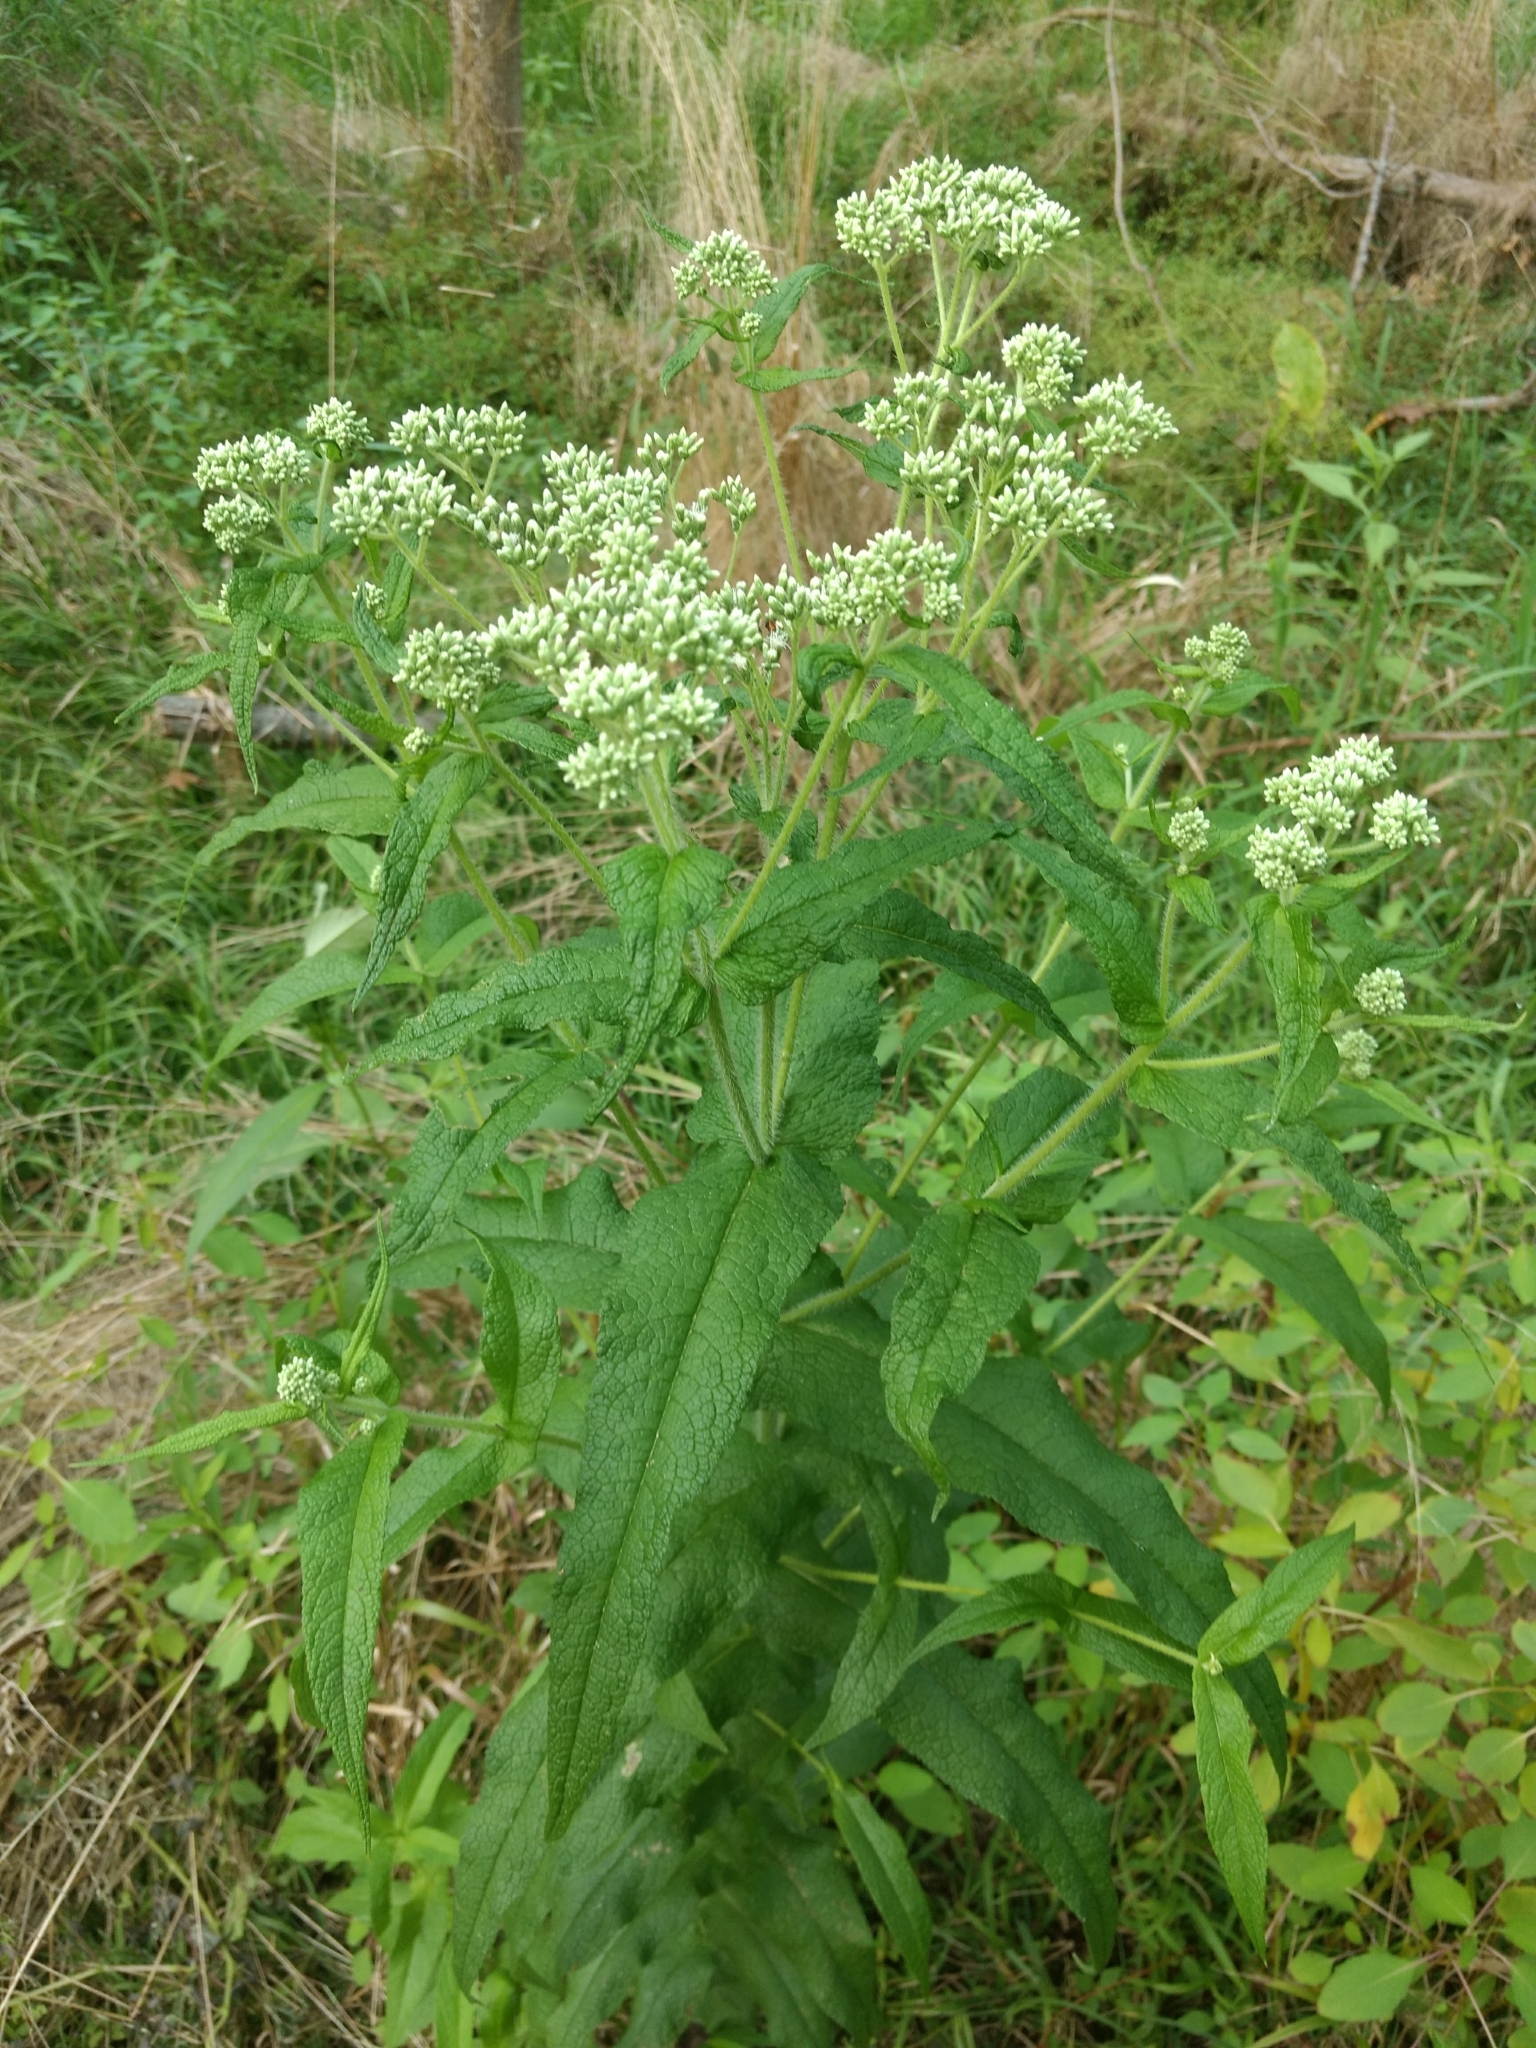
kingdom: Plantae
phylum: Tracheophyta
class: Magnoliopsida
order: Asterales
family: Asteraceae
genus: Eupatorium
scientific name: Eupatorium perfoliatum
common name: Boneset
